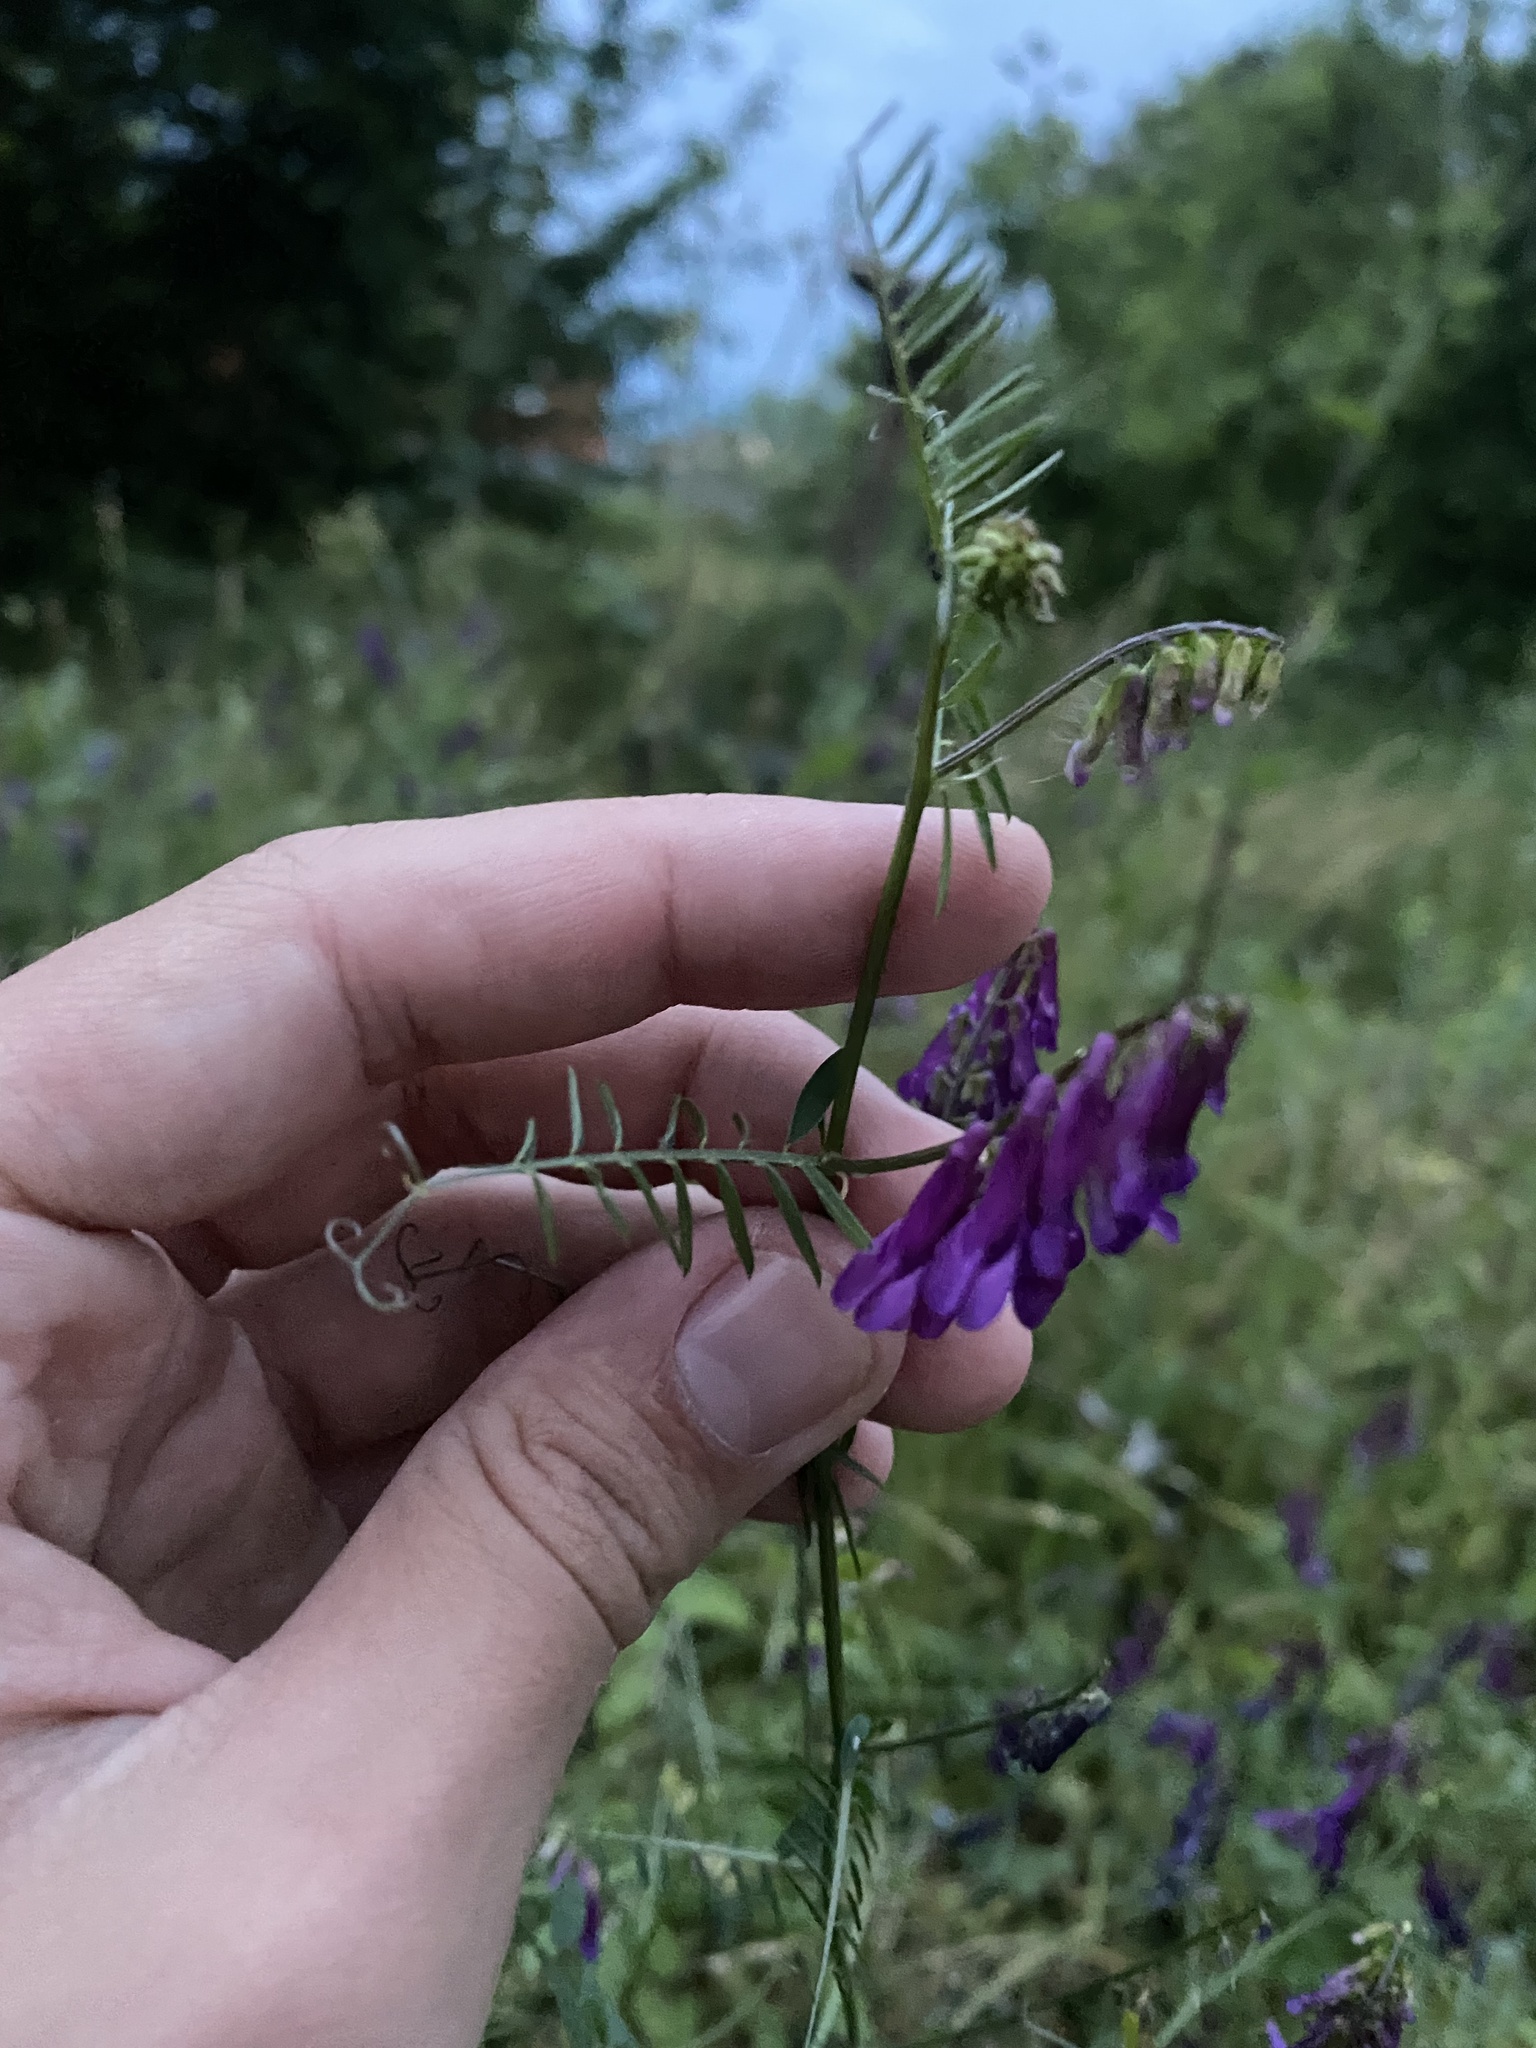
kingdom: Plantae
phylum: Tracheophyta
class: Magnoliopsida
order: Fabales
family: Fabaceae
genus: Vicia
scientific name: Vicia villosa
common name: Fodder vetch
